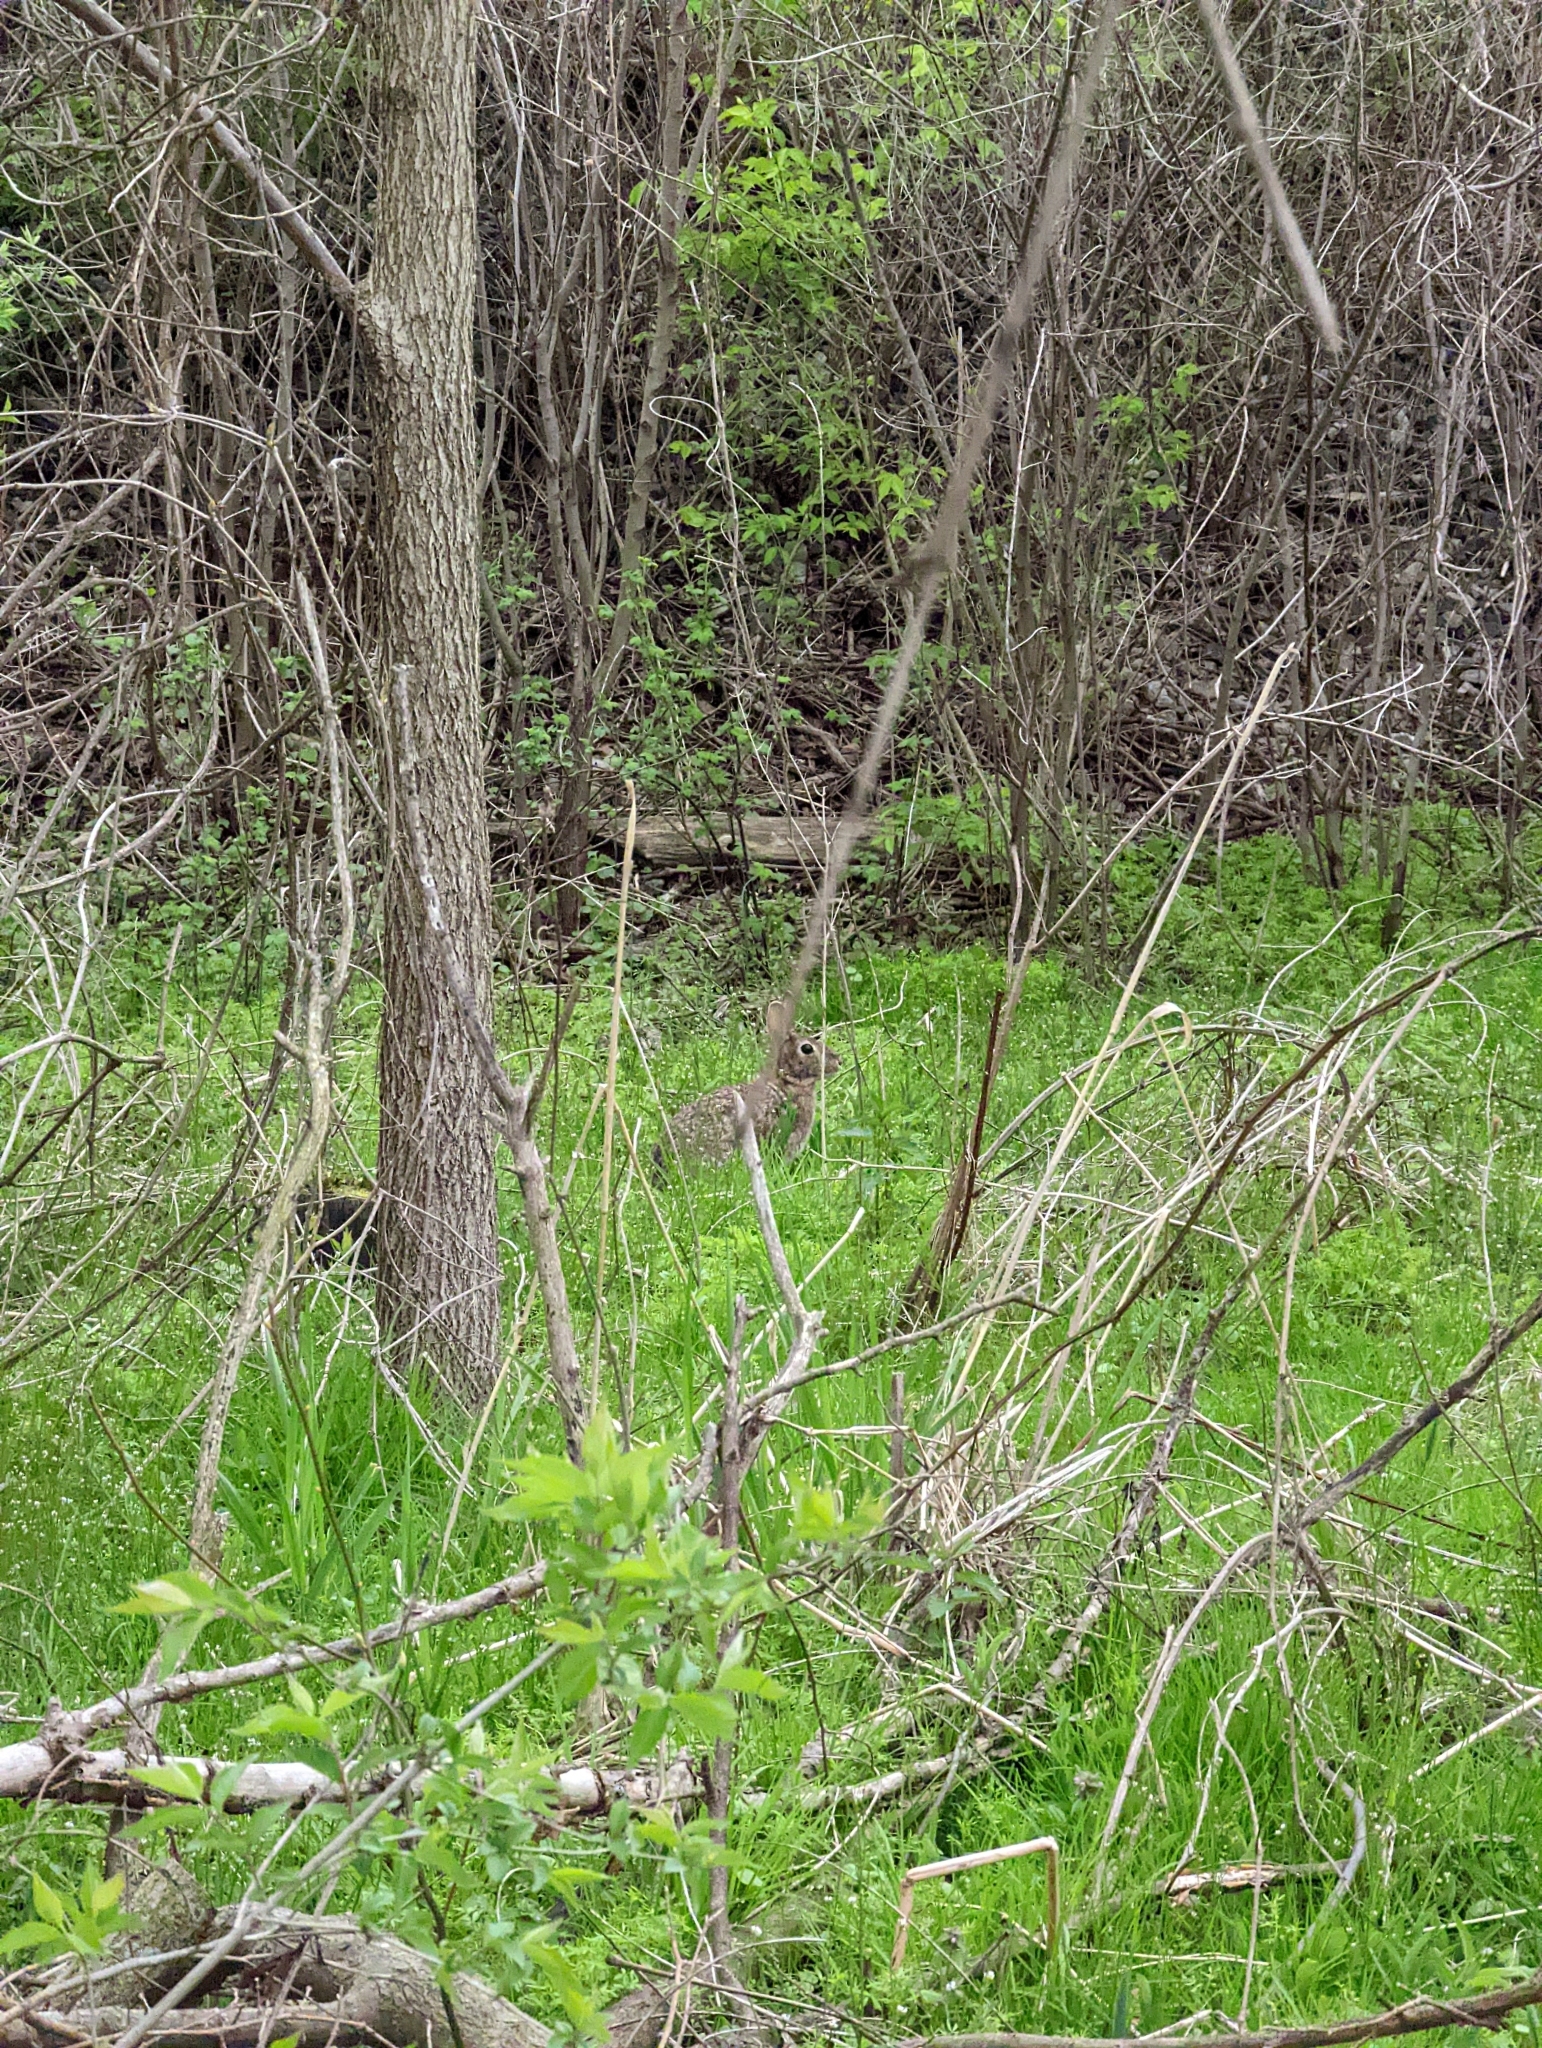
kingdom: Animalia
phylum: Chordata
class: Mammalia
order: Lagomorpha
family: Leporidae
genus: Sylvilagus
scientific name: Sylvilagus floridanus
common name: Eastern cottontail
